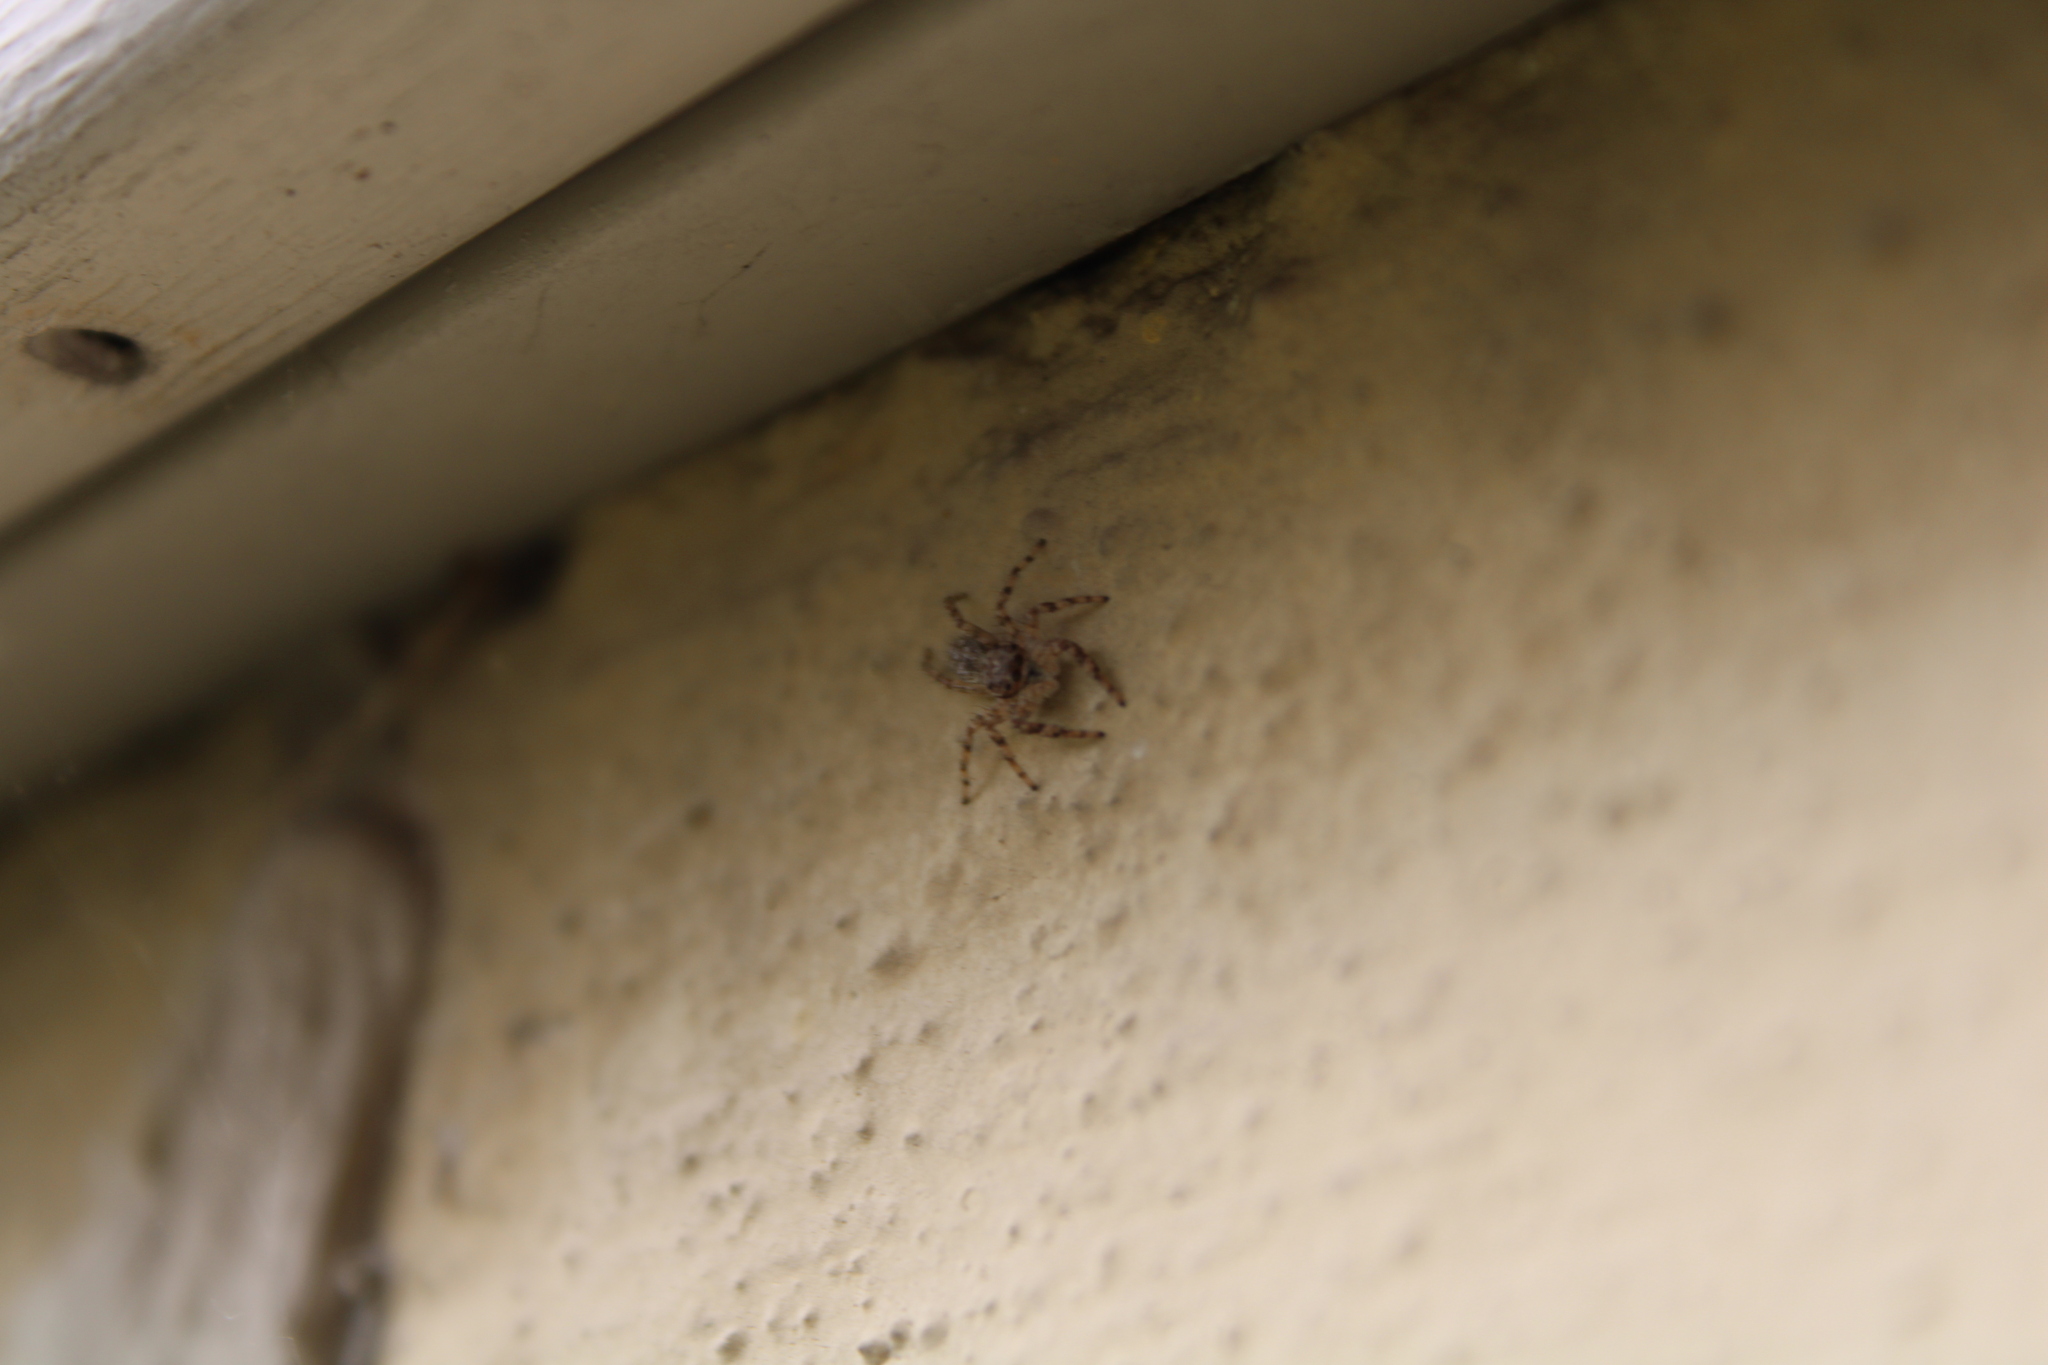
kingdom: Animalia
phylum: Arthropoda
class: Arachnida
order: Araneae
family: Salticidae
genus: Platycryptus
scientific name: Platycryptus undatus
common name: Tan jumping spider
